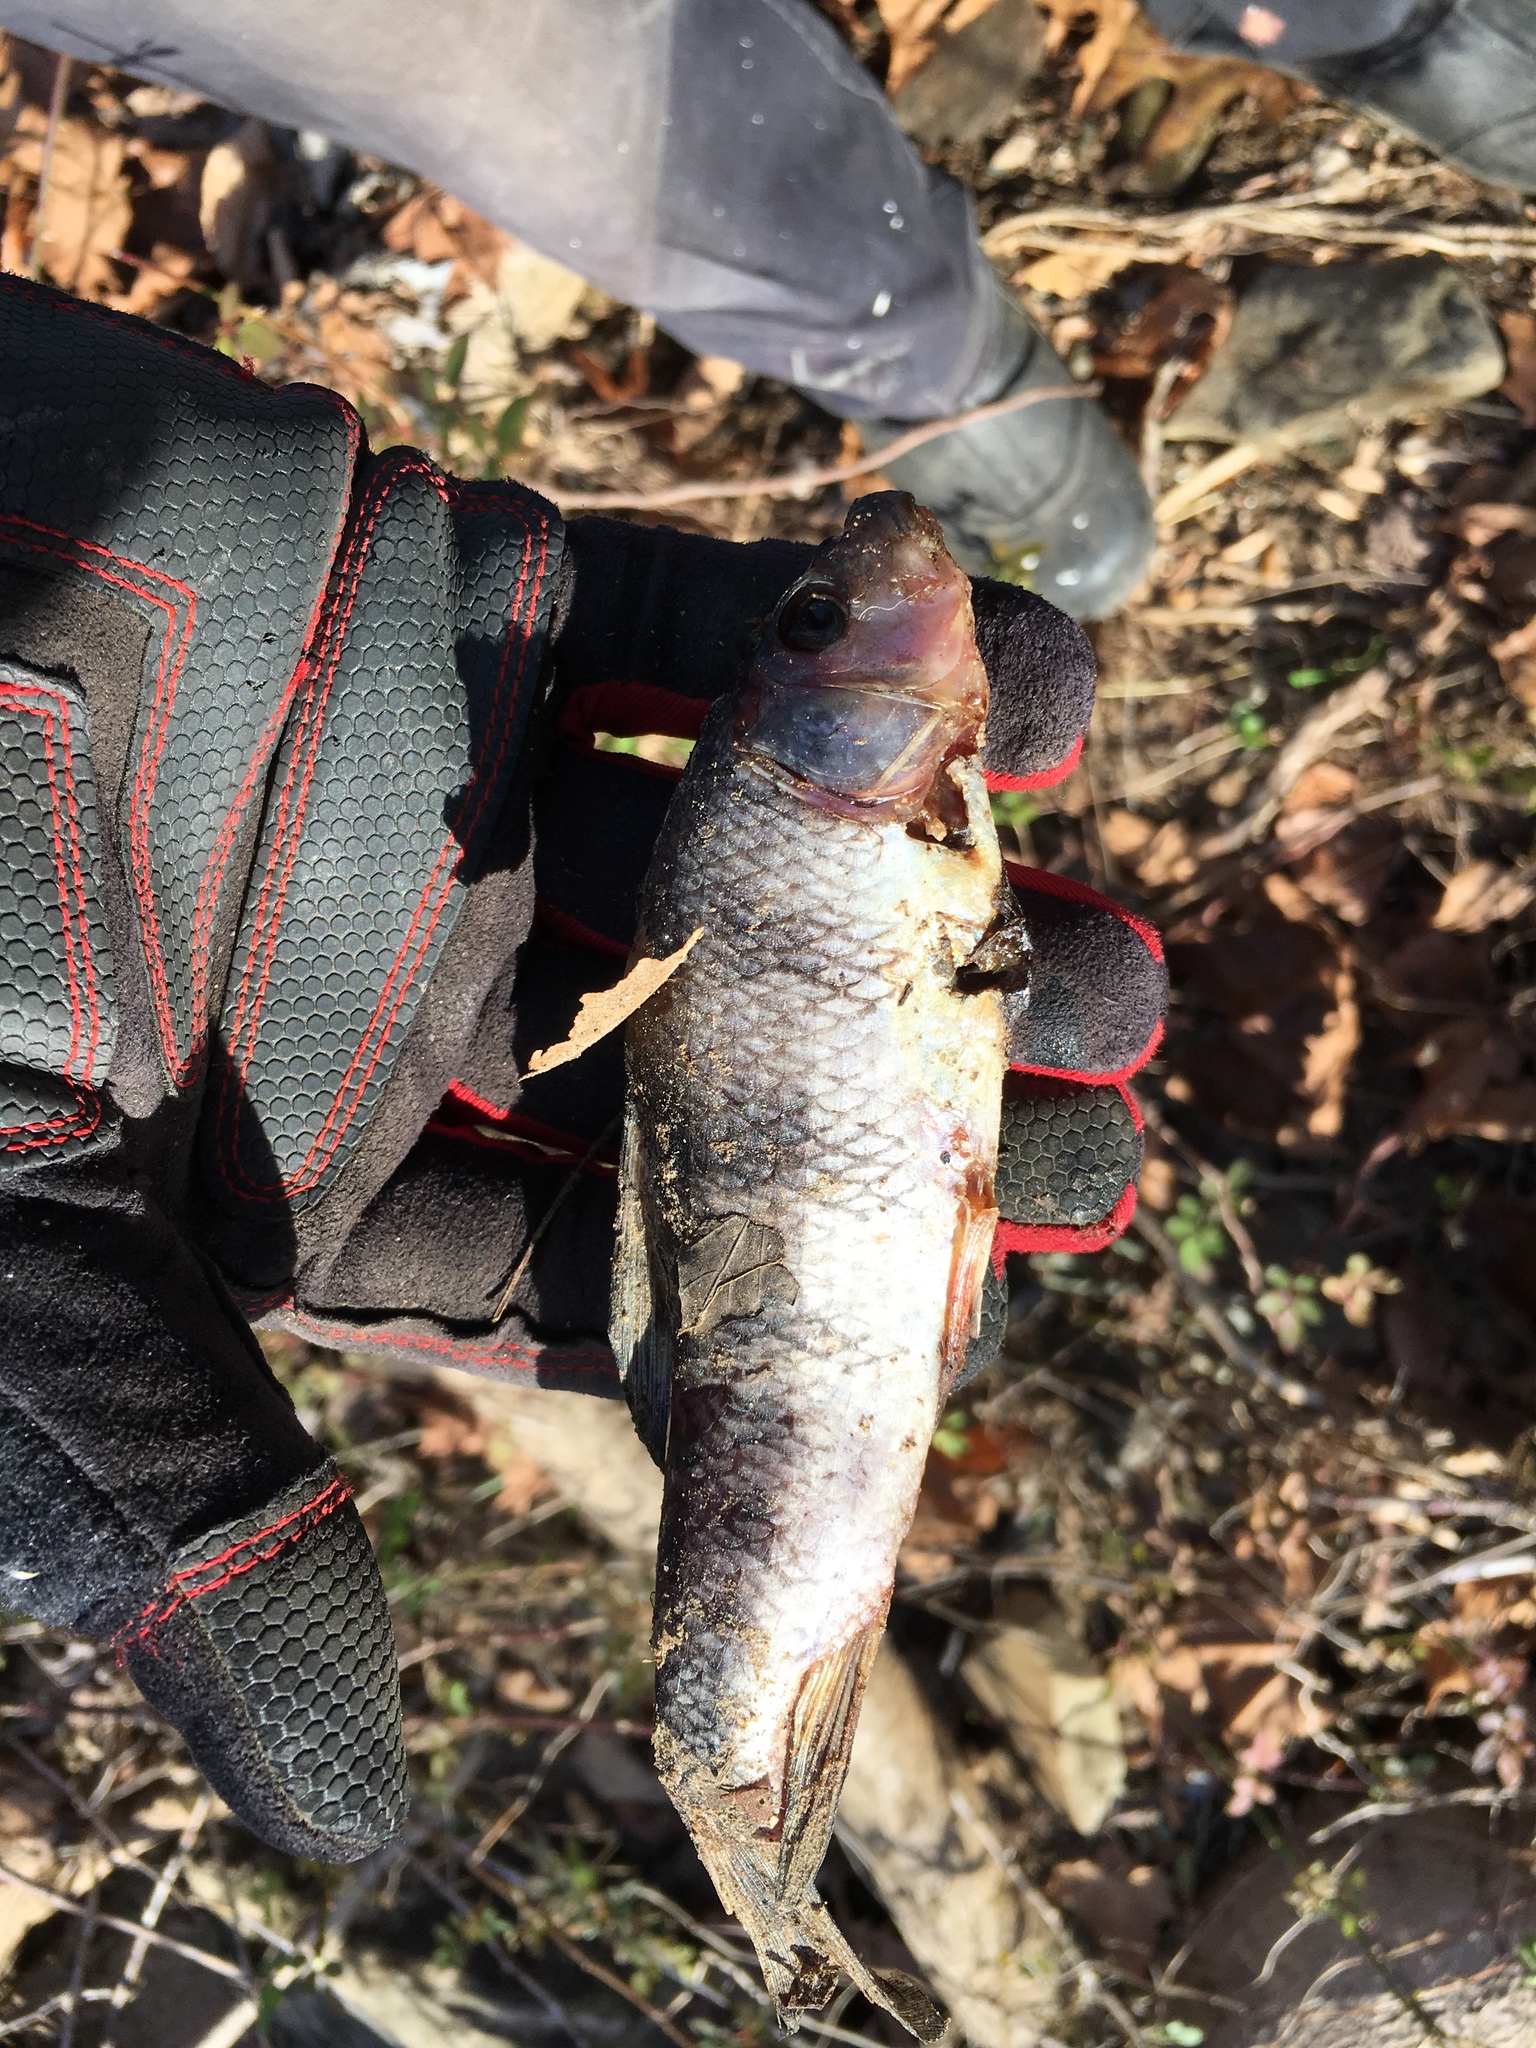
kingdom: Animalia
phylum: Chordata
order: Cypriniformes
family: Catostomidae
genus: Erimyzon
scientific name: Erimyzon oblongus
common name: Eastern creek chubsucker
